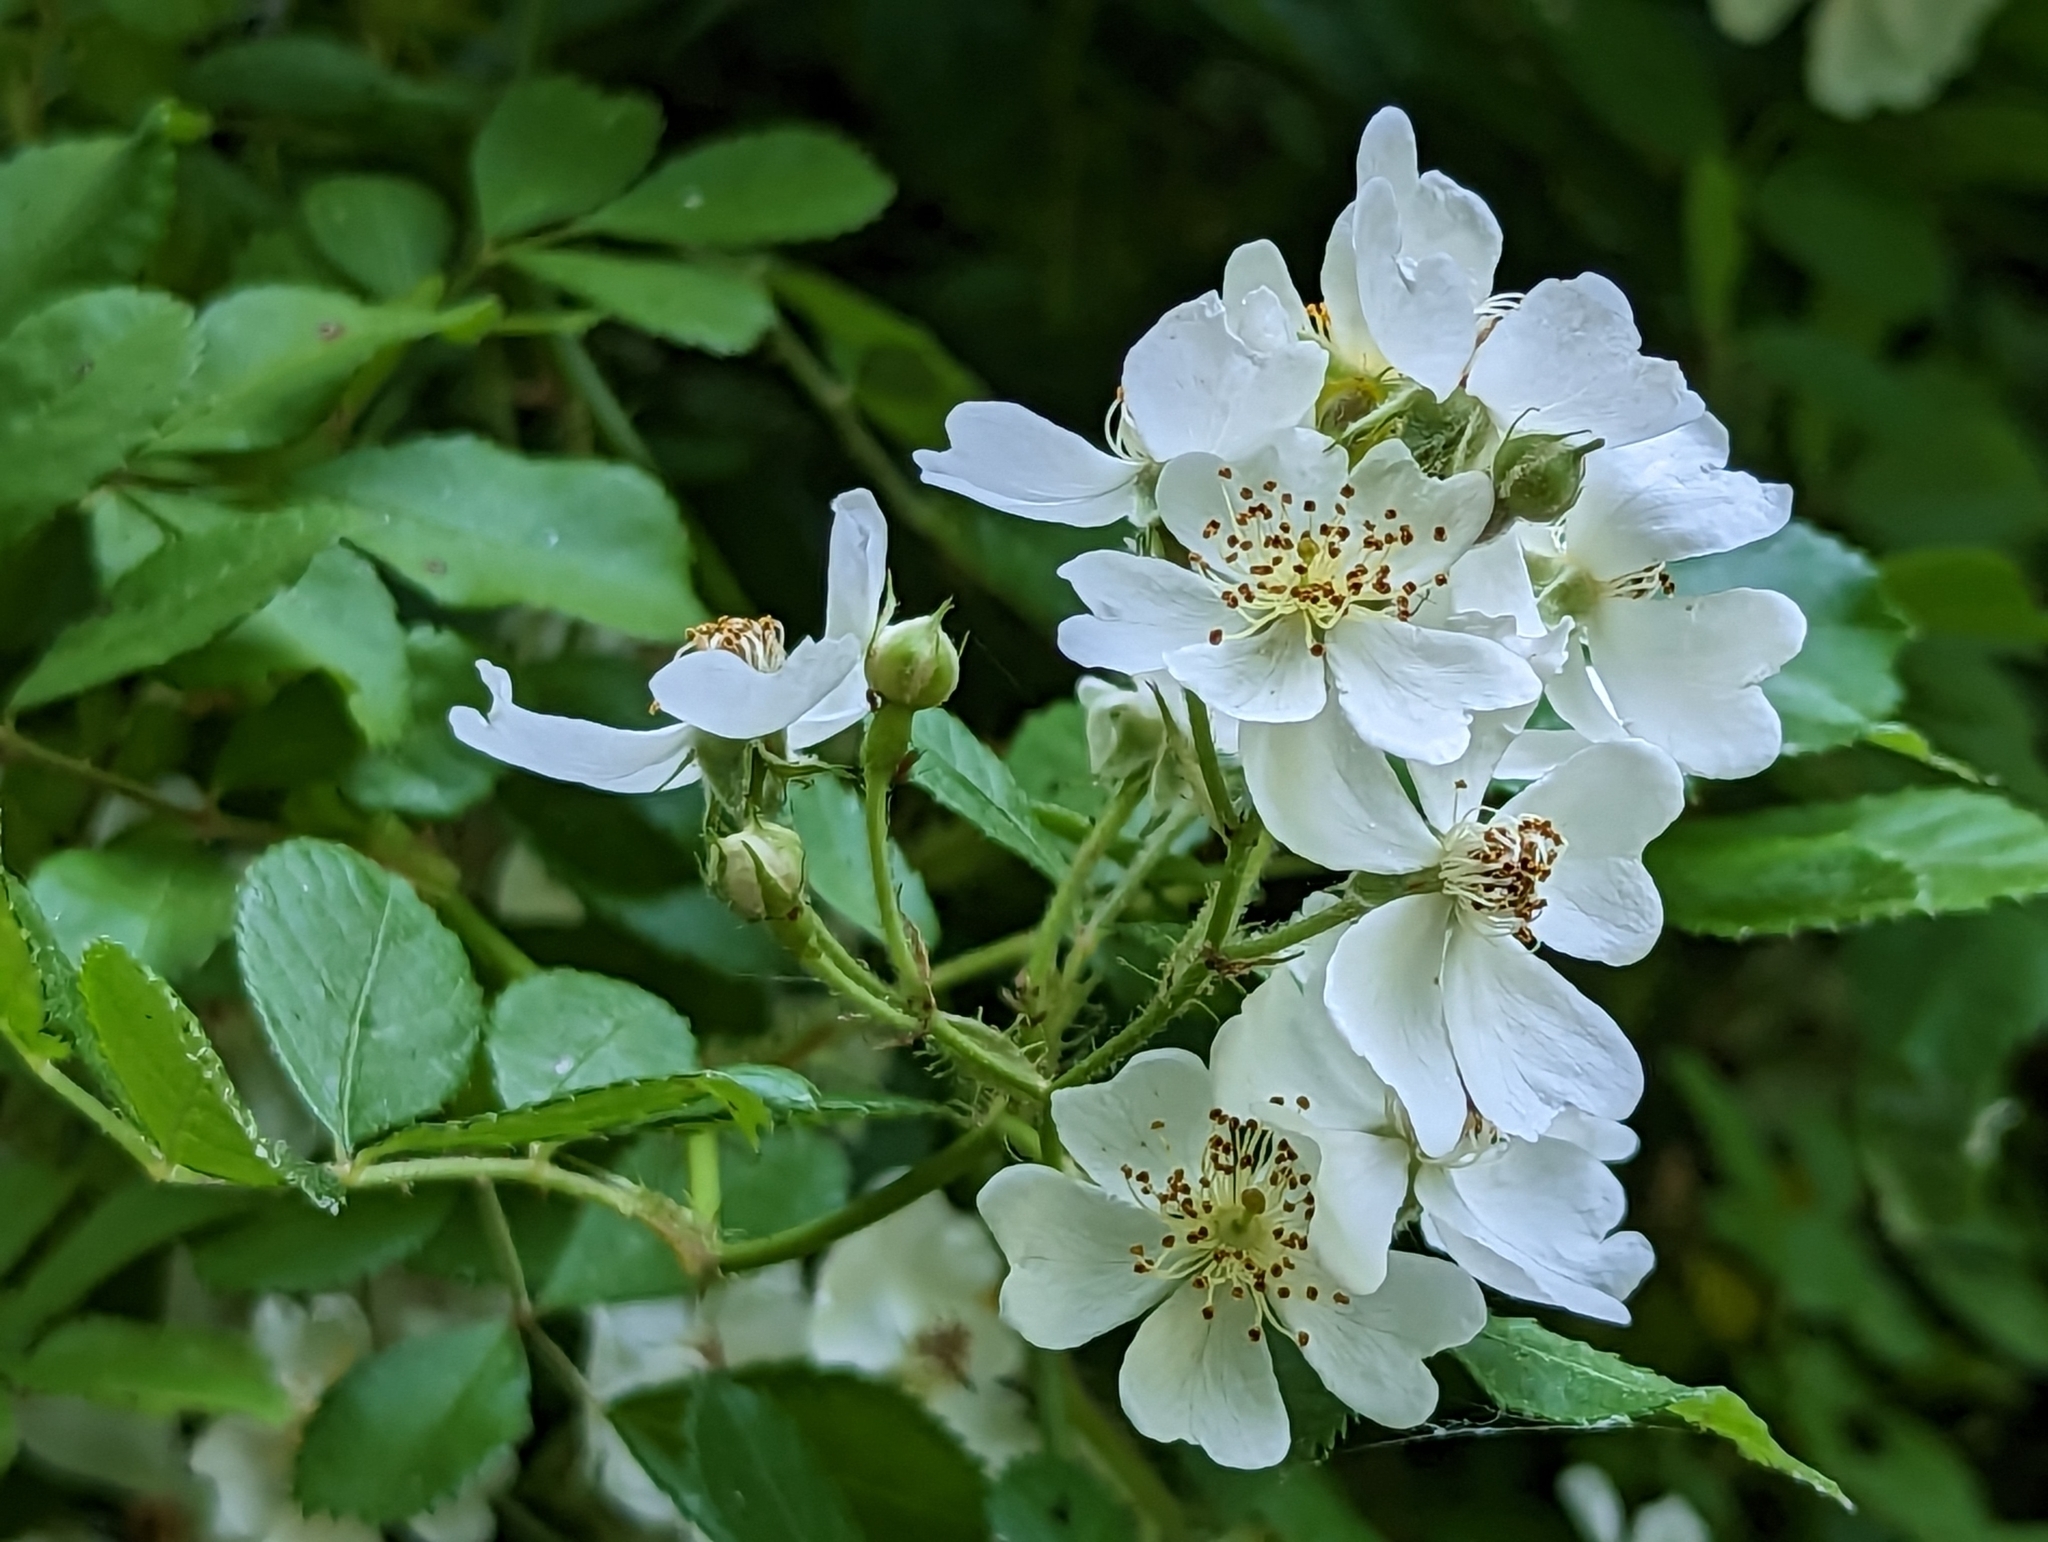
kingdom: Plantae
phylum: Tracheophyta
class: Magnoliopsida
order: Rosales
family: Rosaceae
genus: Rosa
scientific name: Rosa multiflora
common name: Multiflora rose
